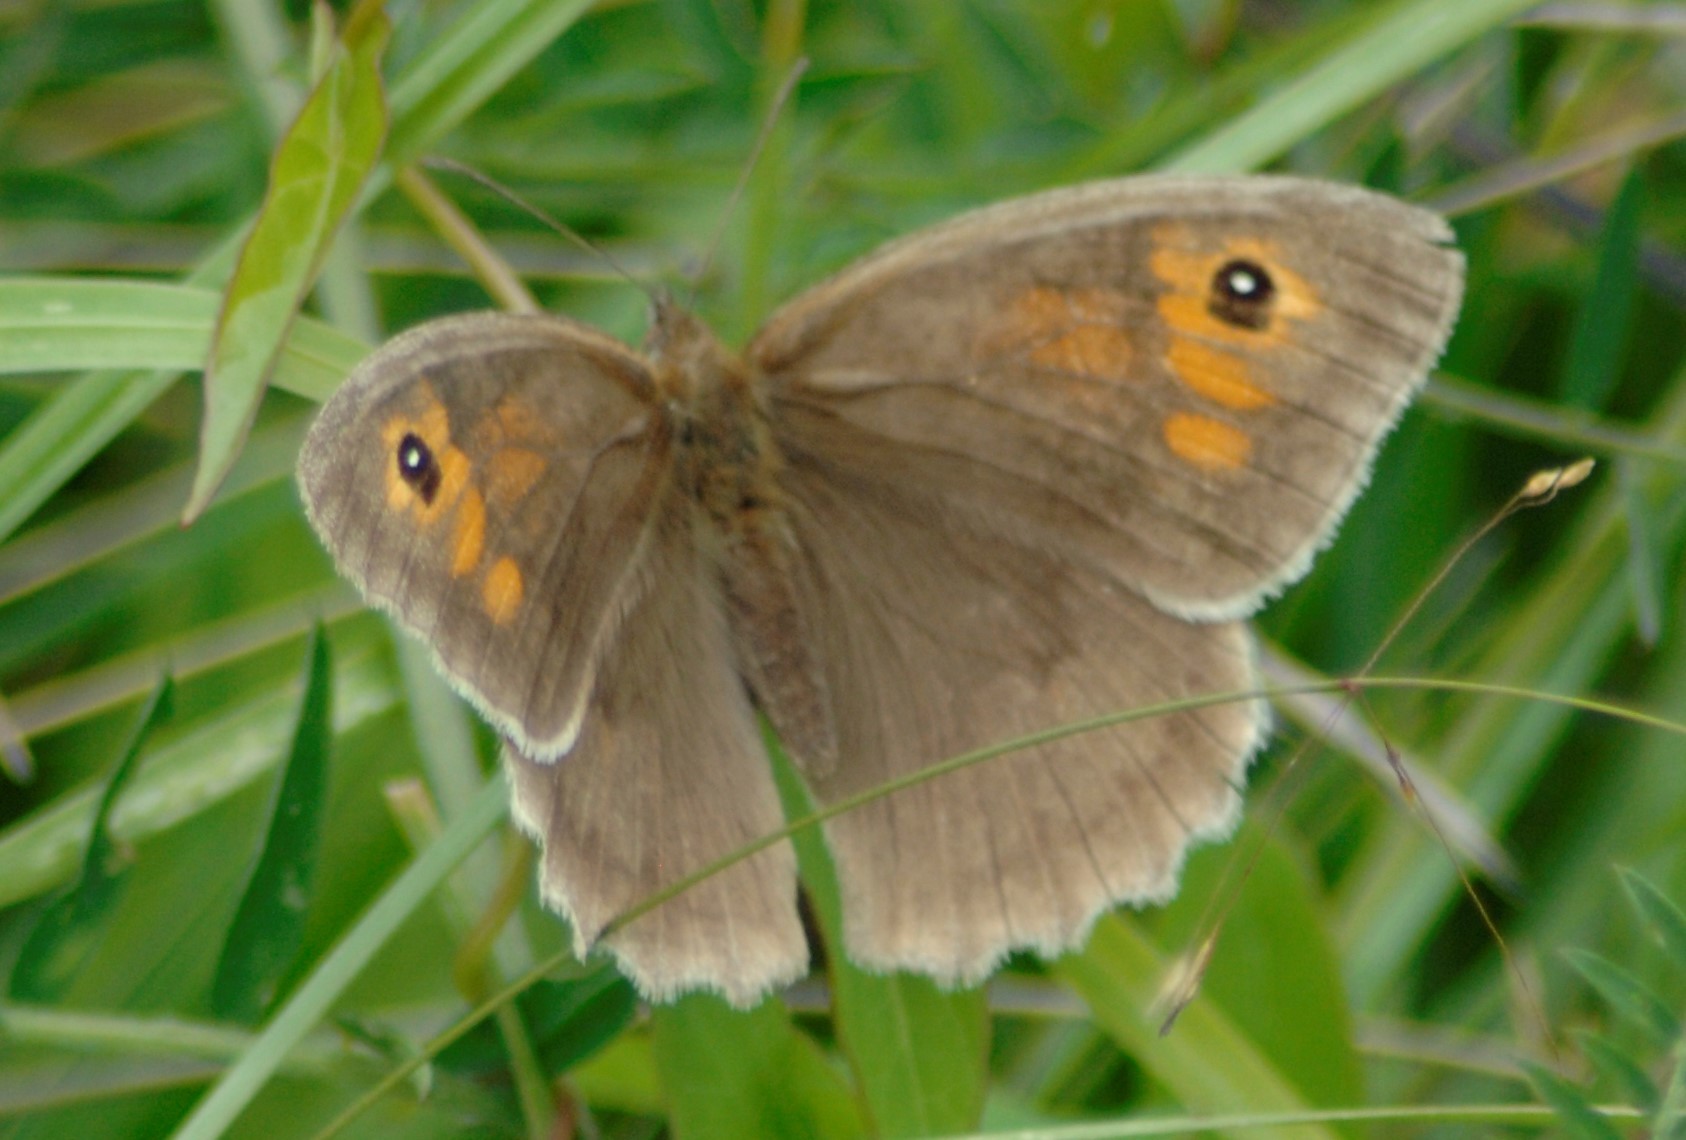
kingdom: Animalia
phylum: Arthropoda
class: Insecta
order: Lepidoptera
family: Nymphalidae
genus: Maniola
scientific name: Maniola jurtina
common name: Meadow brown
